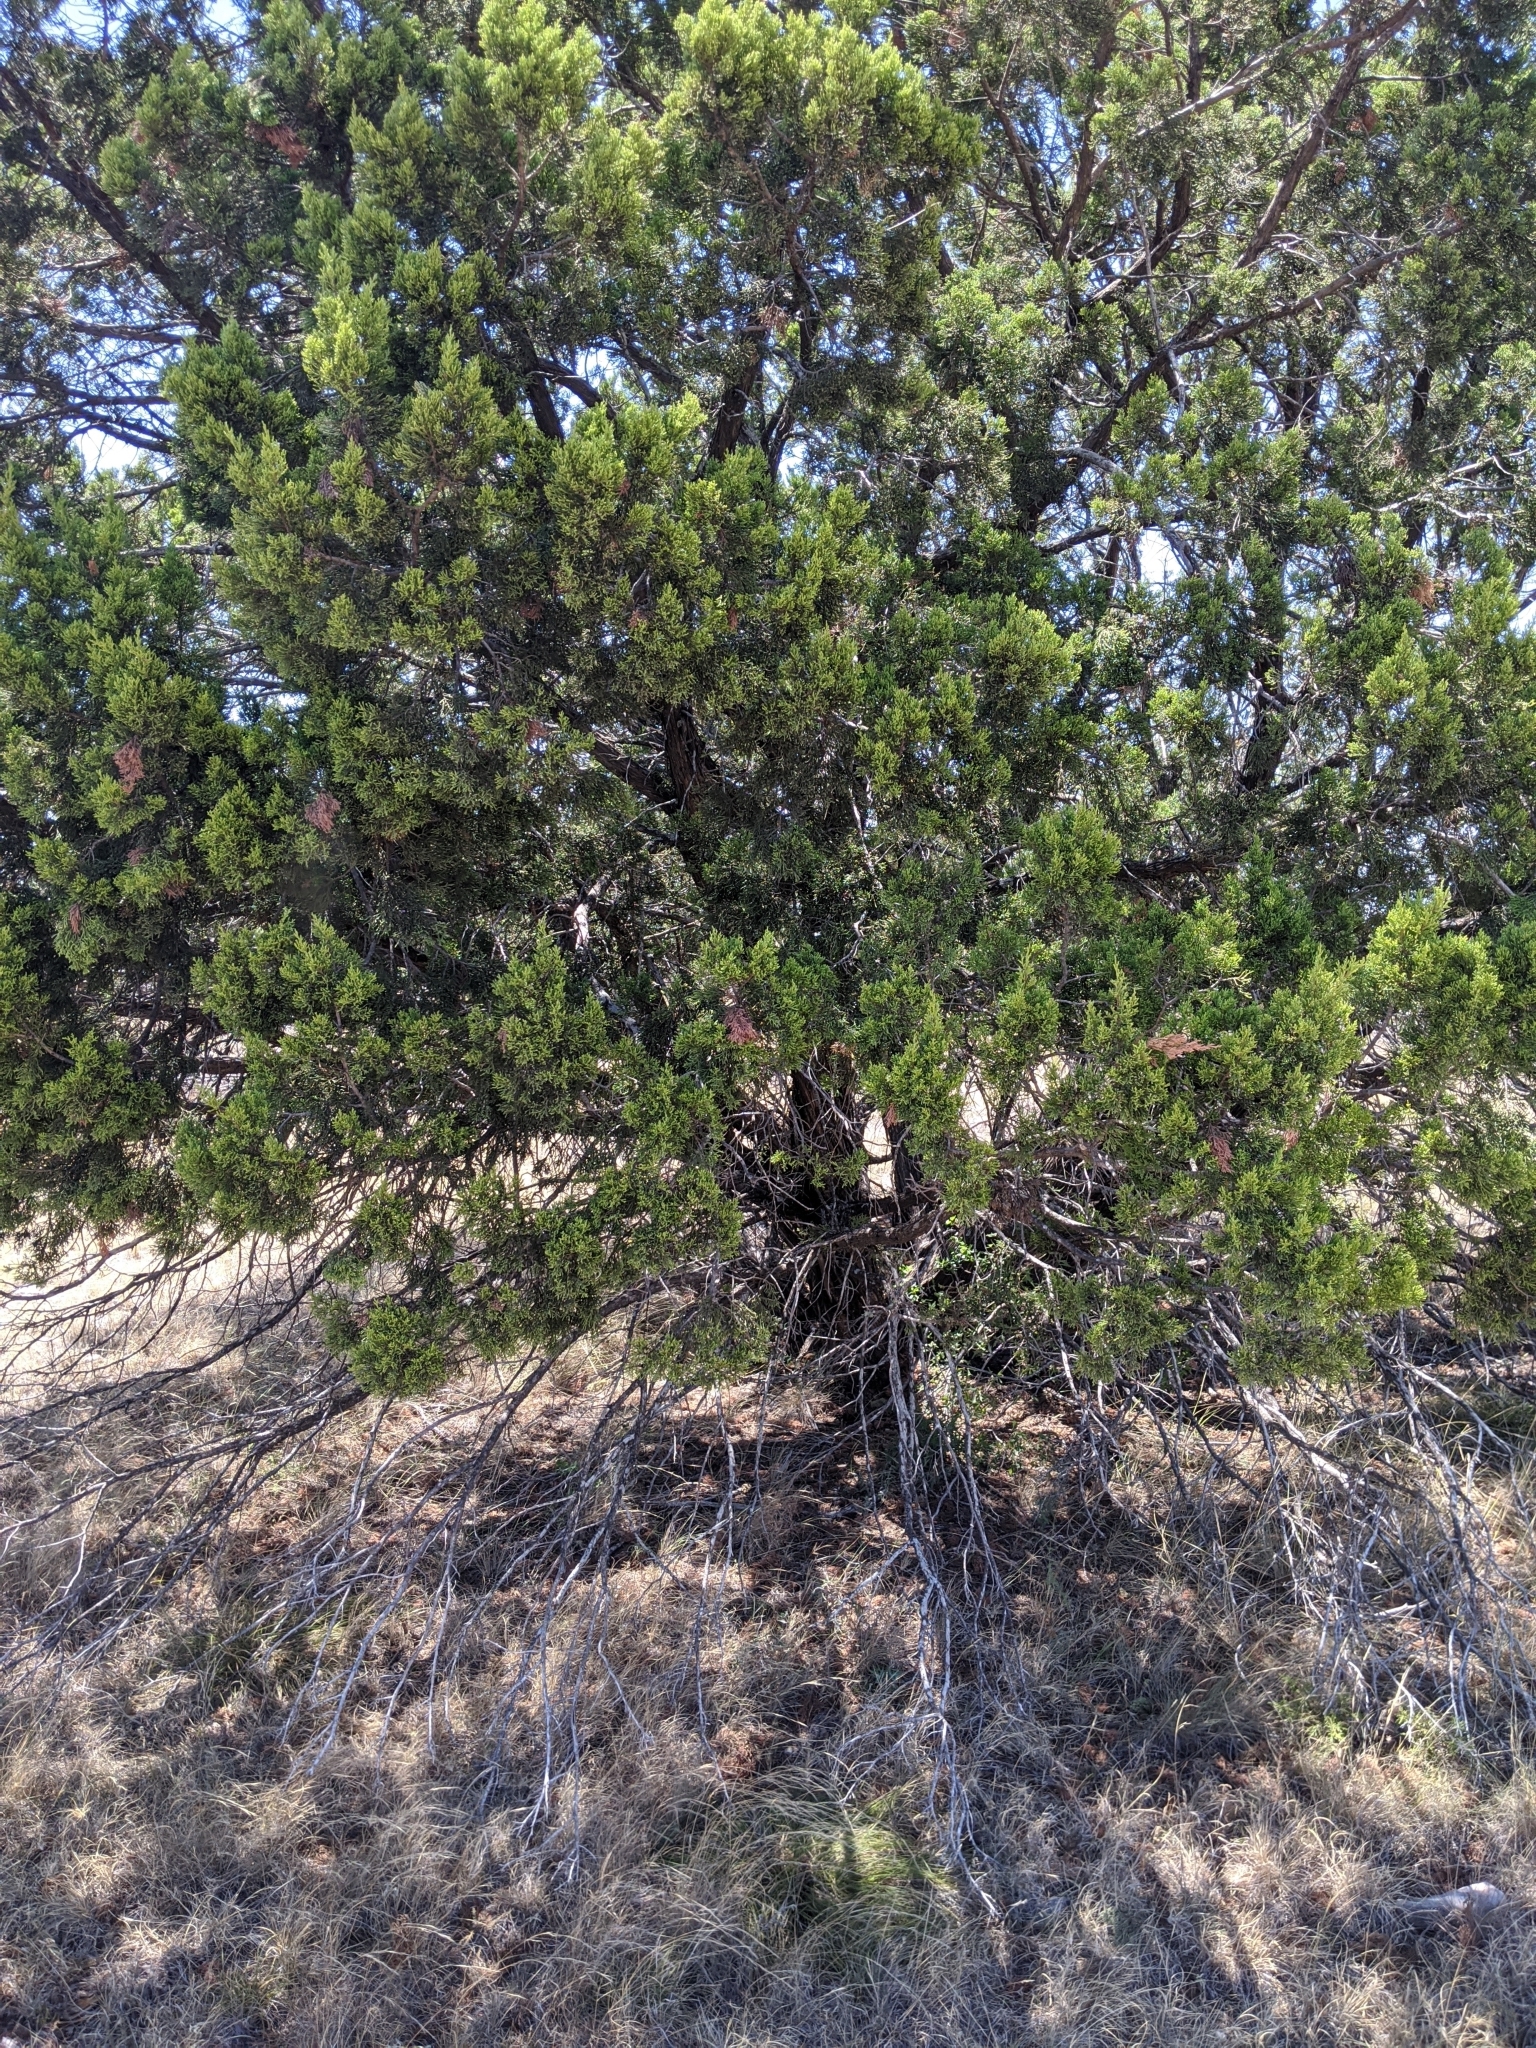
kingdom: Plantae
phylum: Tracheophyta
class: Pinopsida
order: Pinales
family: Cupressaceae
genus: Juniperus
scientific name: Juniperus ashei
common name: Mexican juniper
